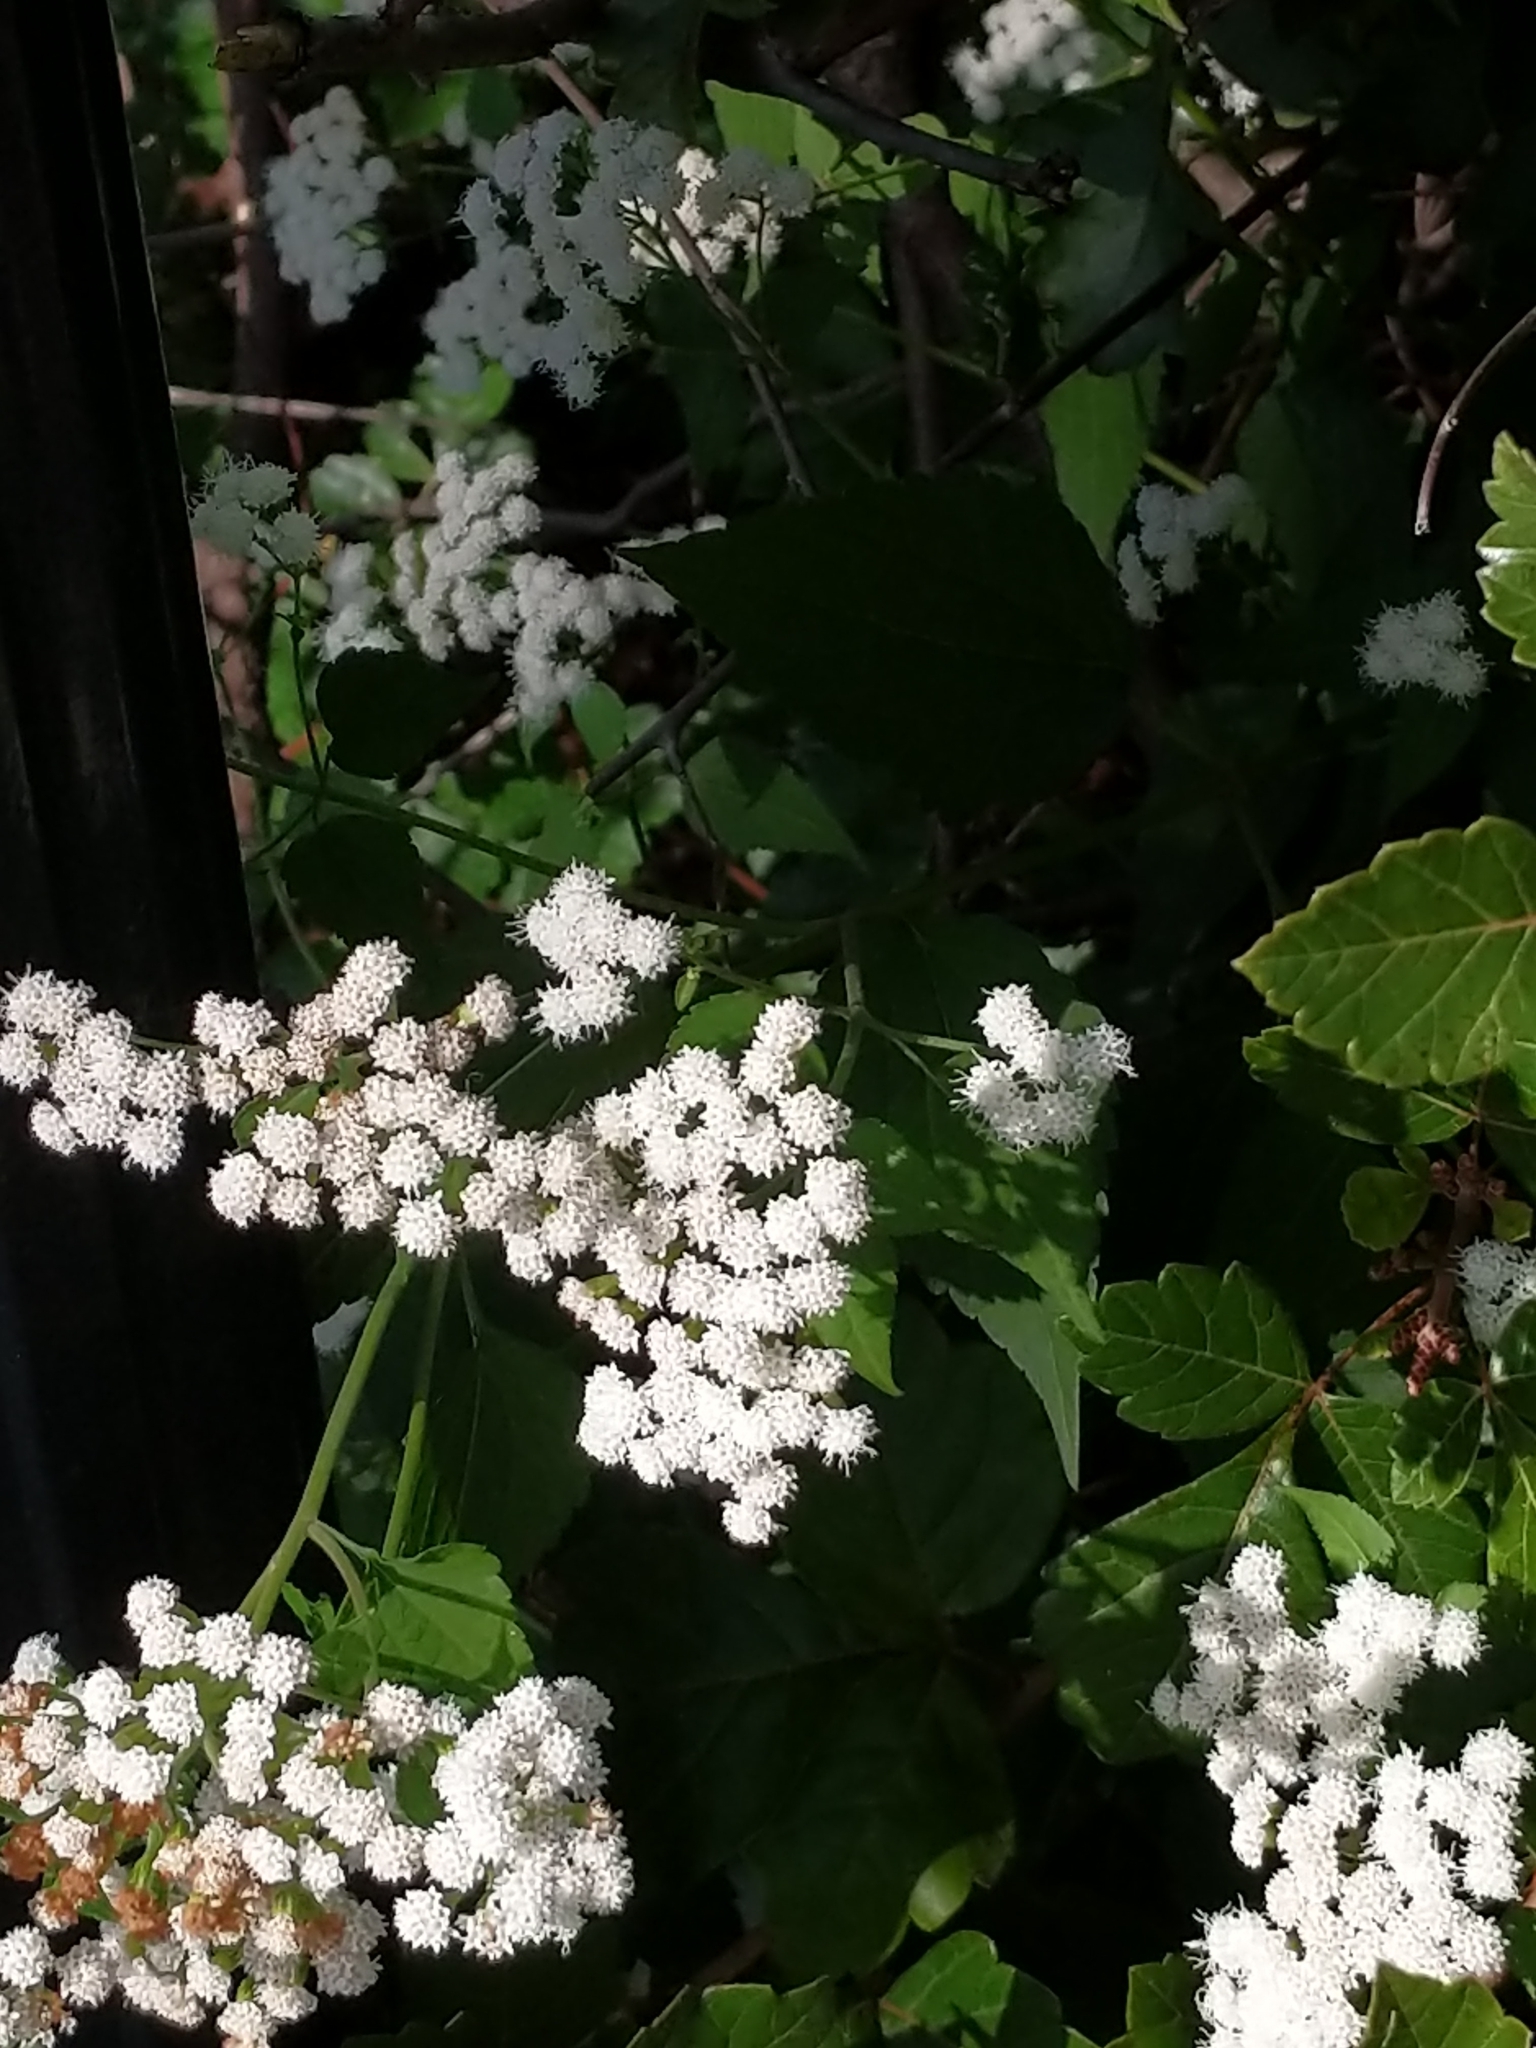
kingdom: Plantae
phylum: Tracheophyta
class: Magnoliopsida
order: Asterales
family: Asteraceae
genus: Ageratina
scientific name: Ageratina altissima
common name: White snakeroot
